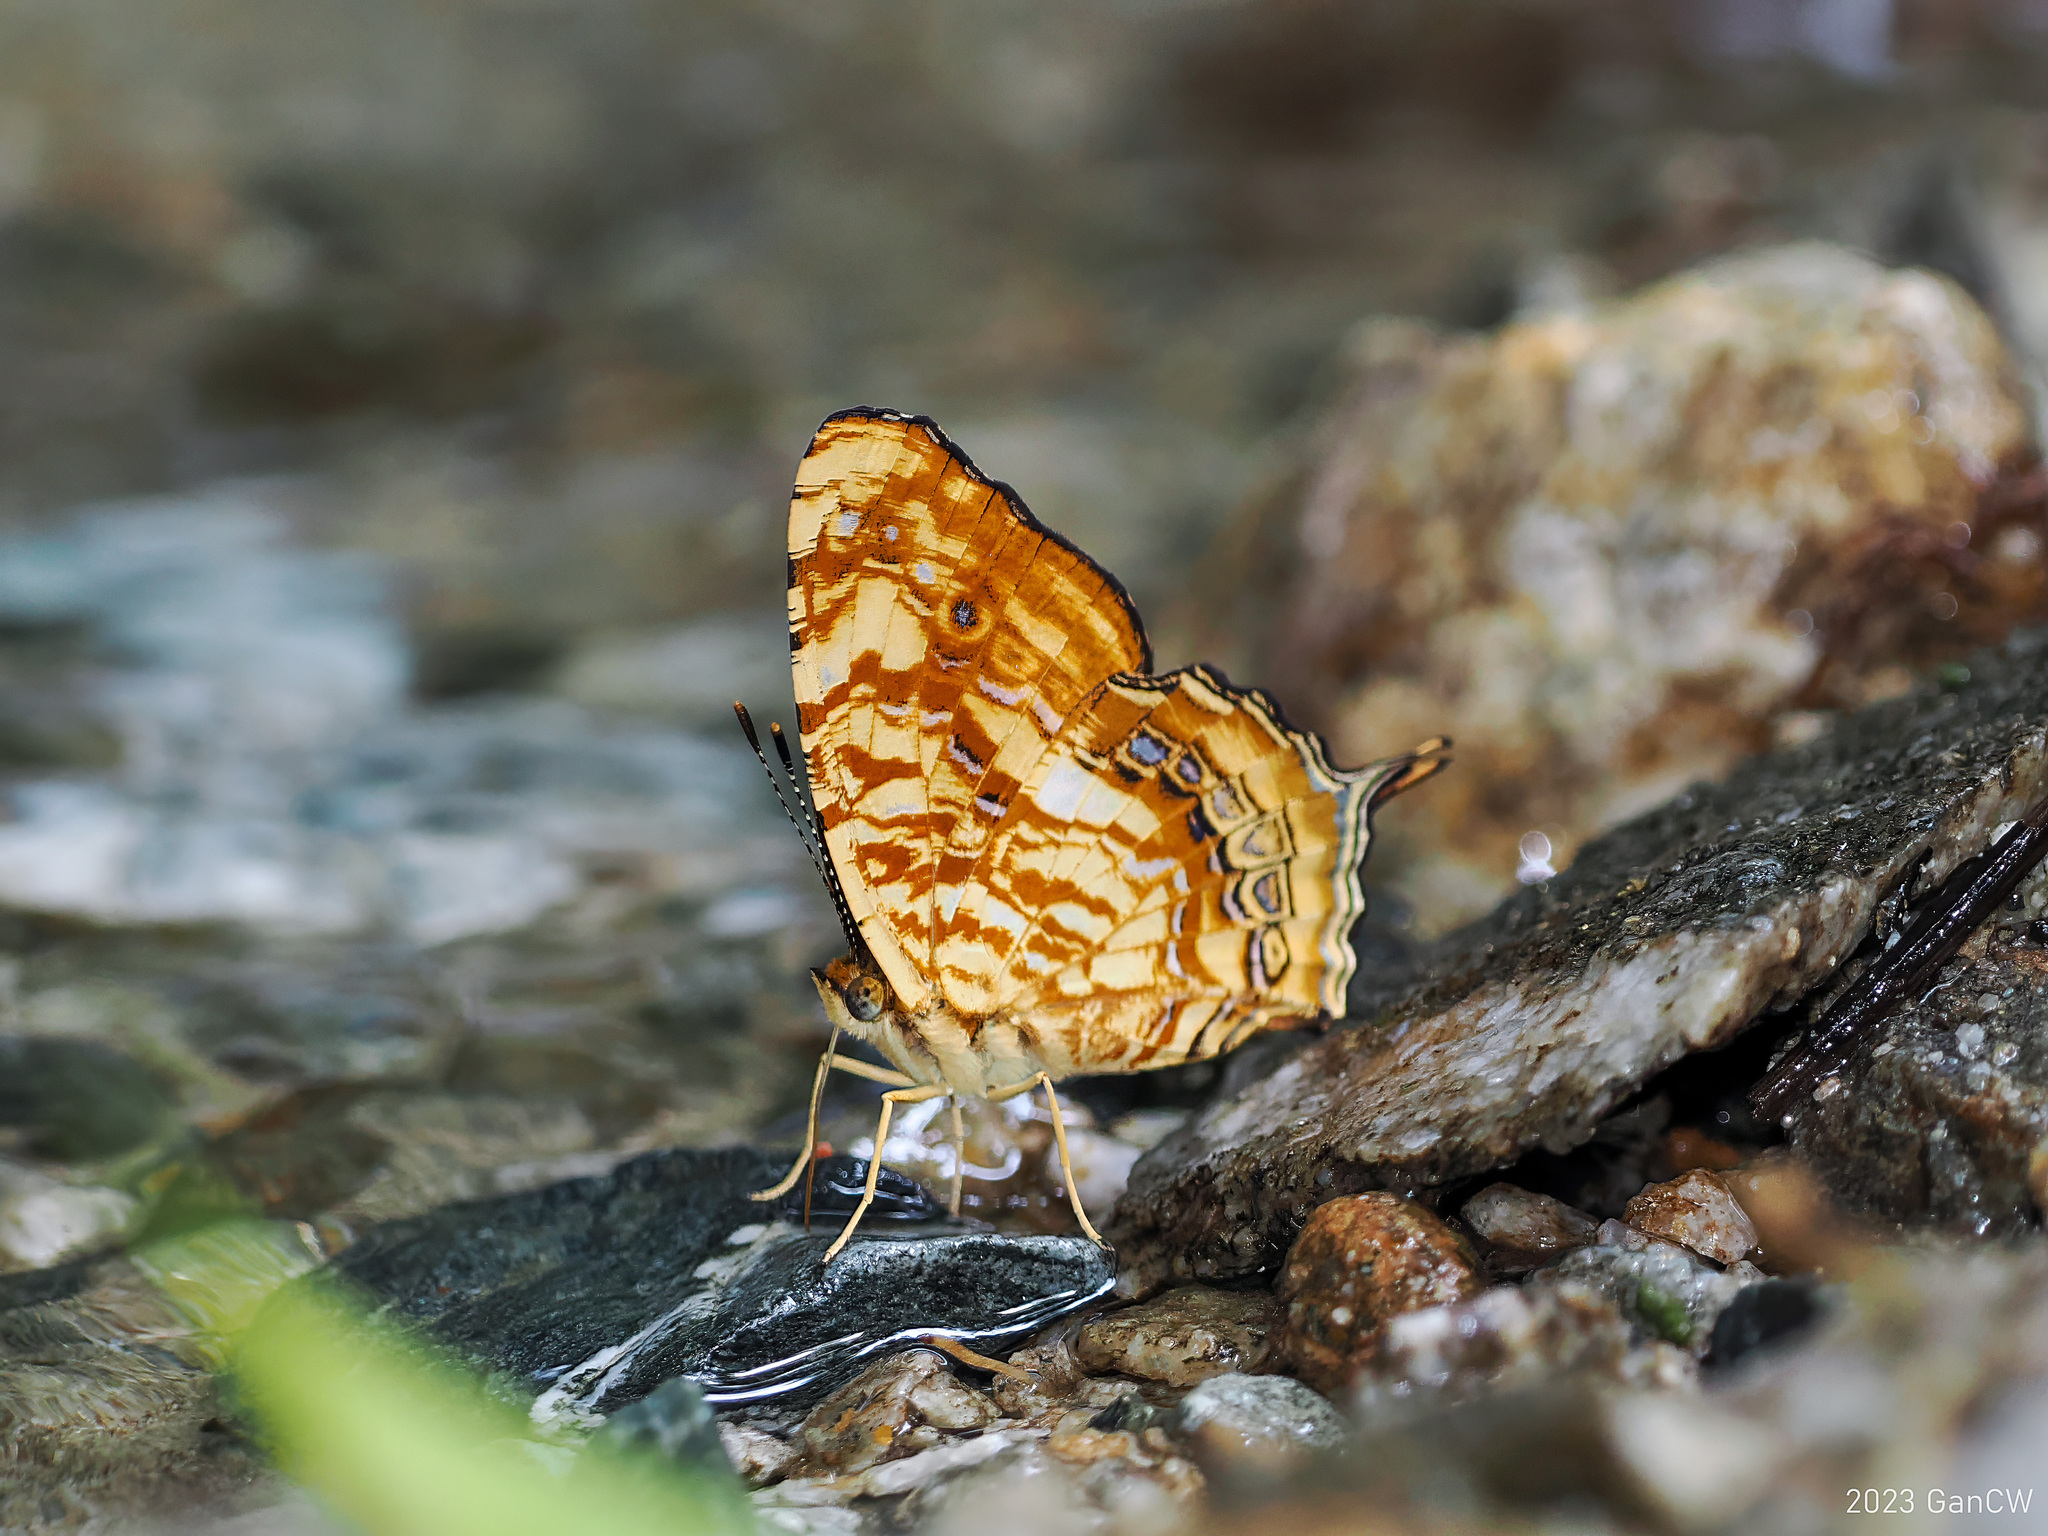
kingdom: Animalia
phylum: Arthropoda
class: Insecta
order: Lepidoptera
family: Nymphalidae
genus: Symbrenthia
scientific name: Symbrenthia intricata
